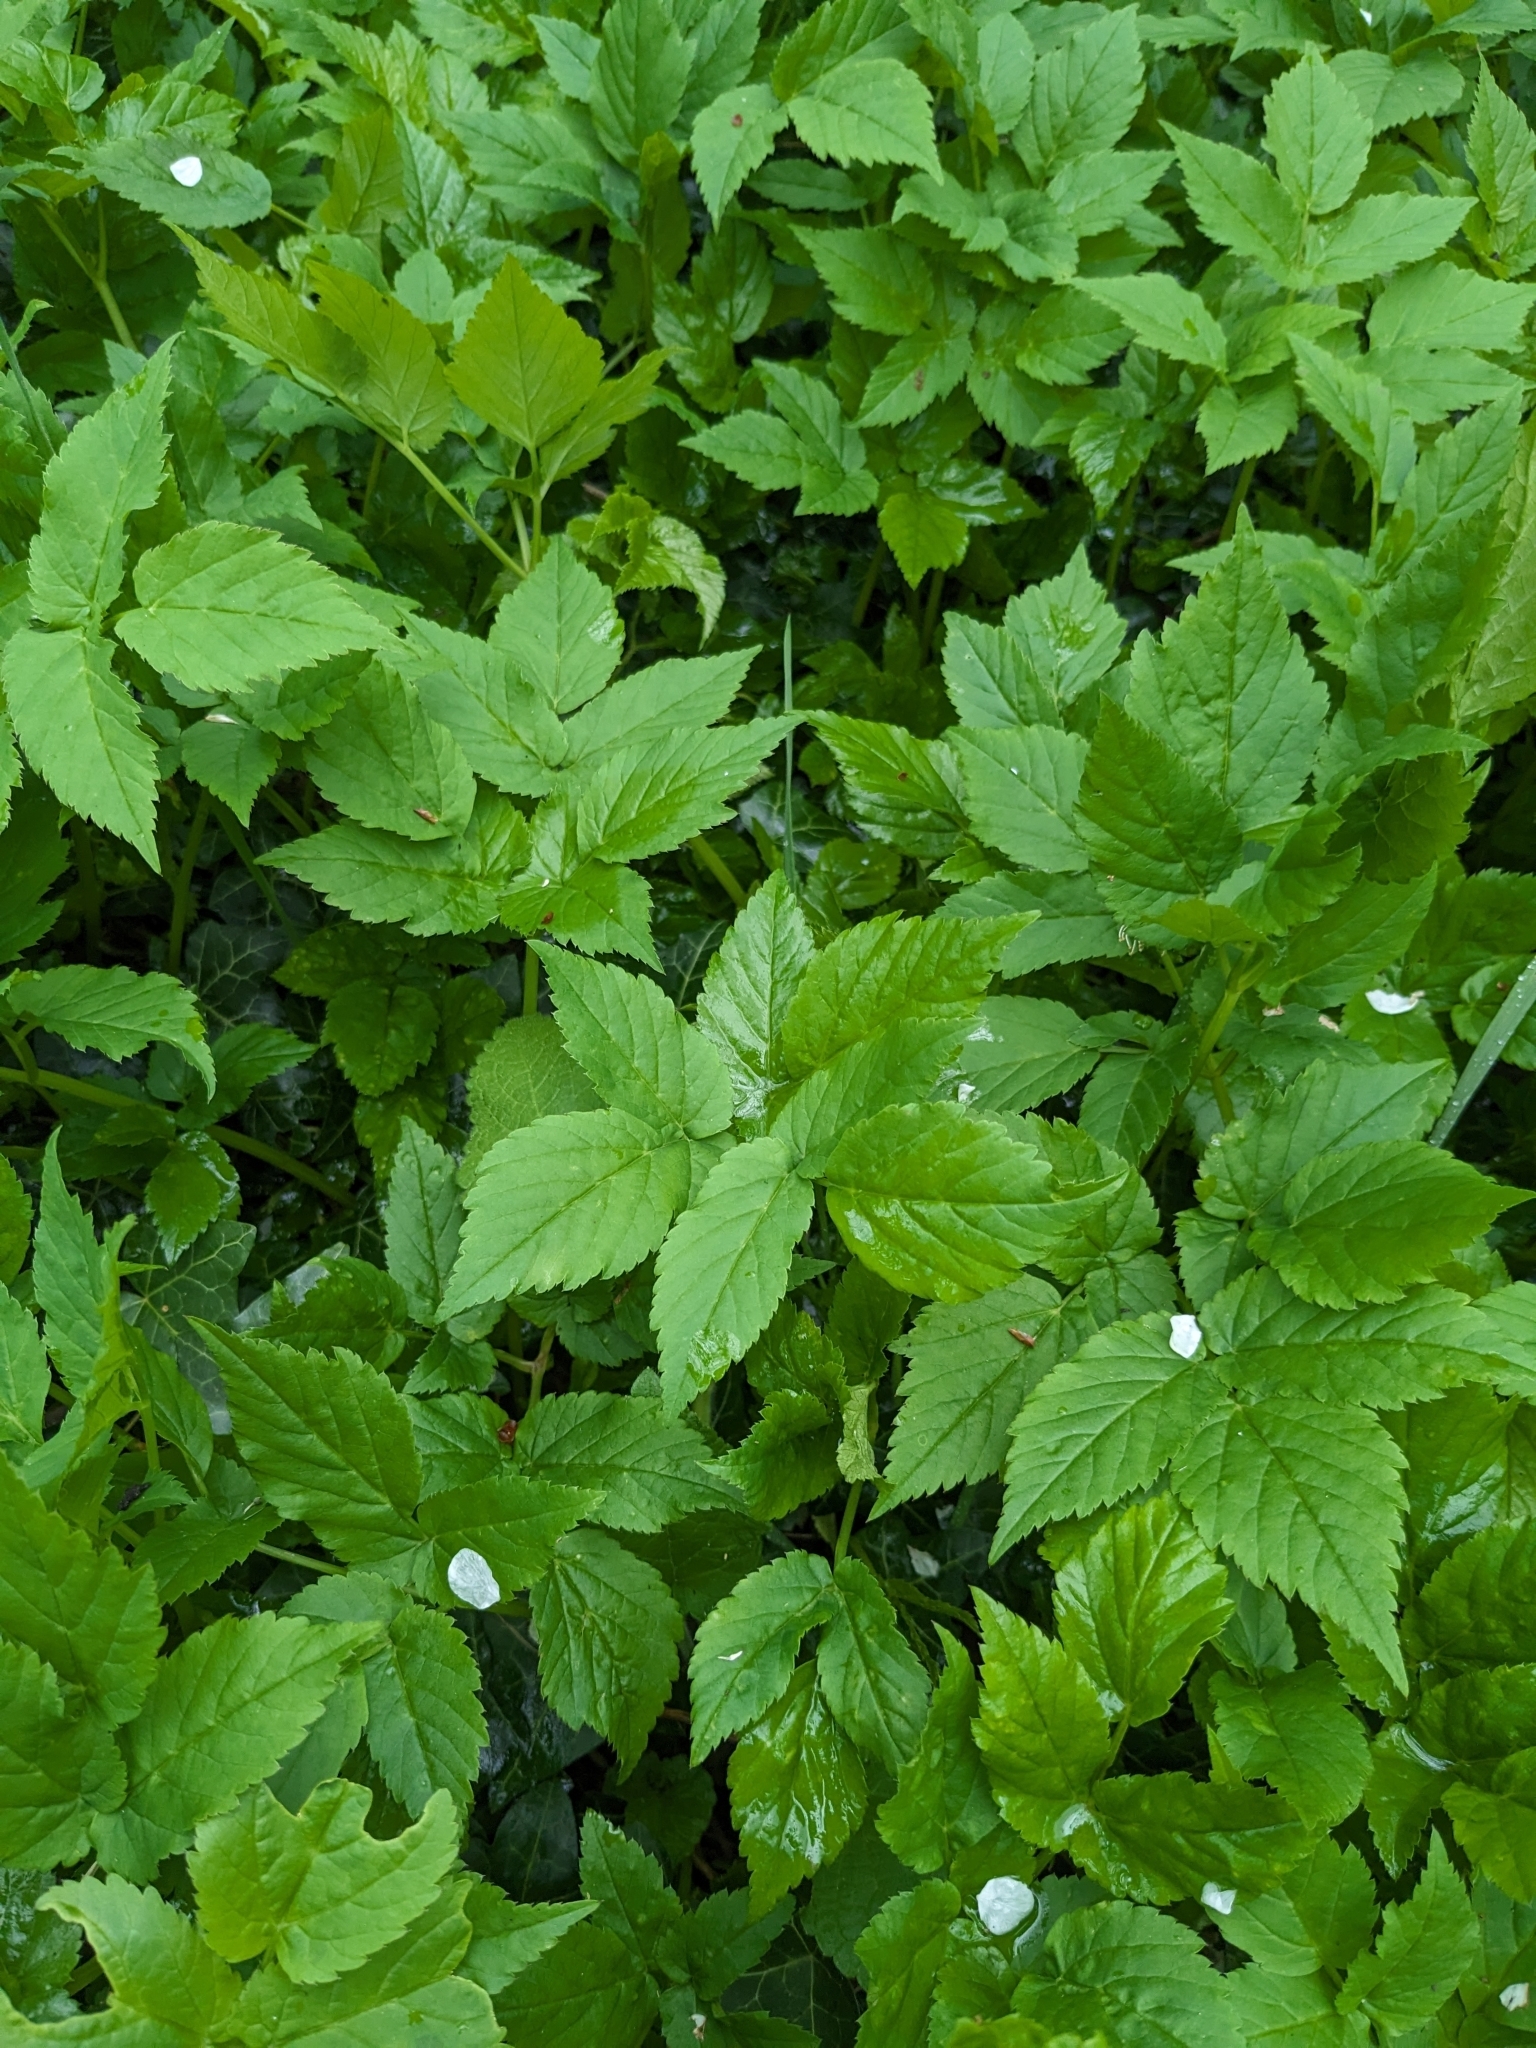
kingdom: Plantae
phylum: Tracheophyta
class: Magnoliopsida
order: Apiales
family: Apiaceae
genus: Aegopodium
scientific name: Aegopodium podagraria
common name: Ground-elder
